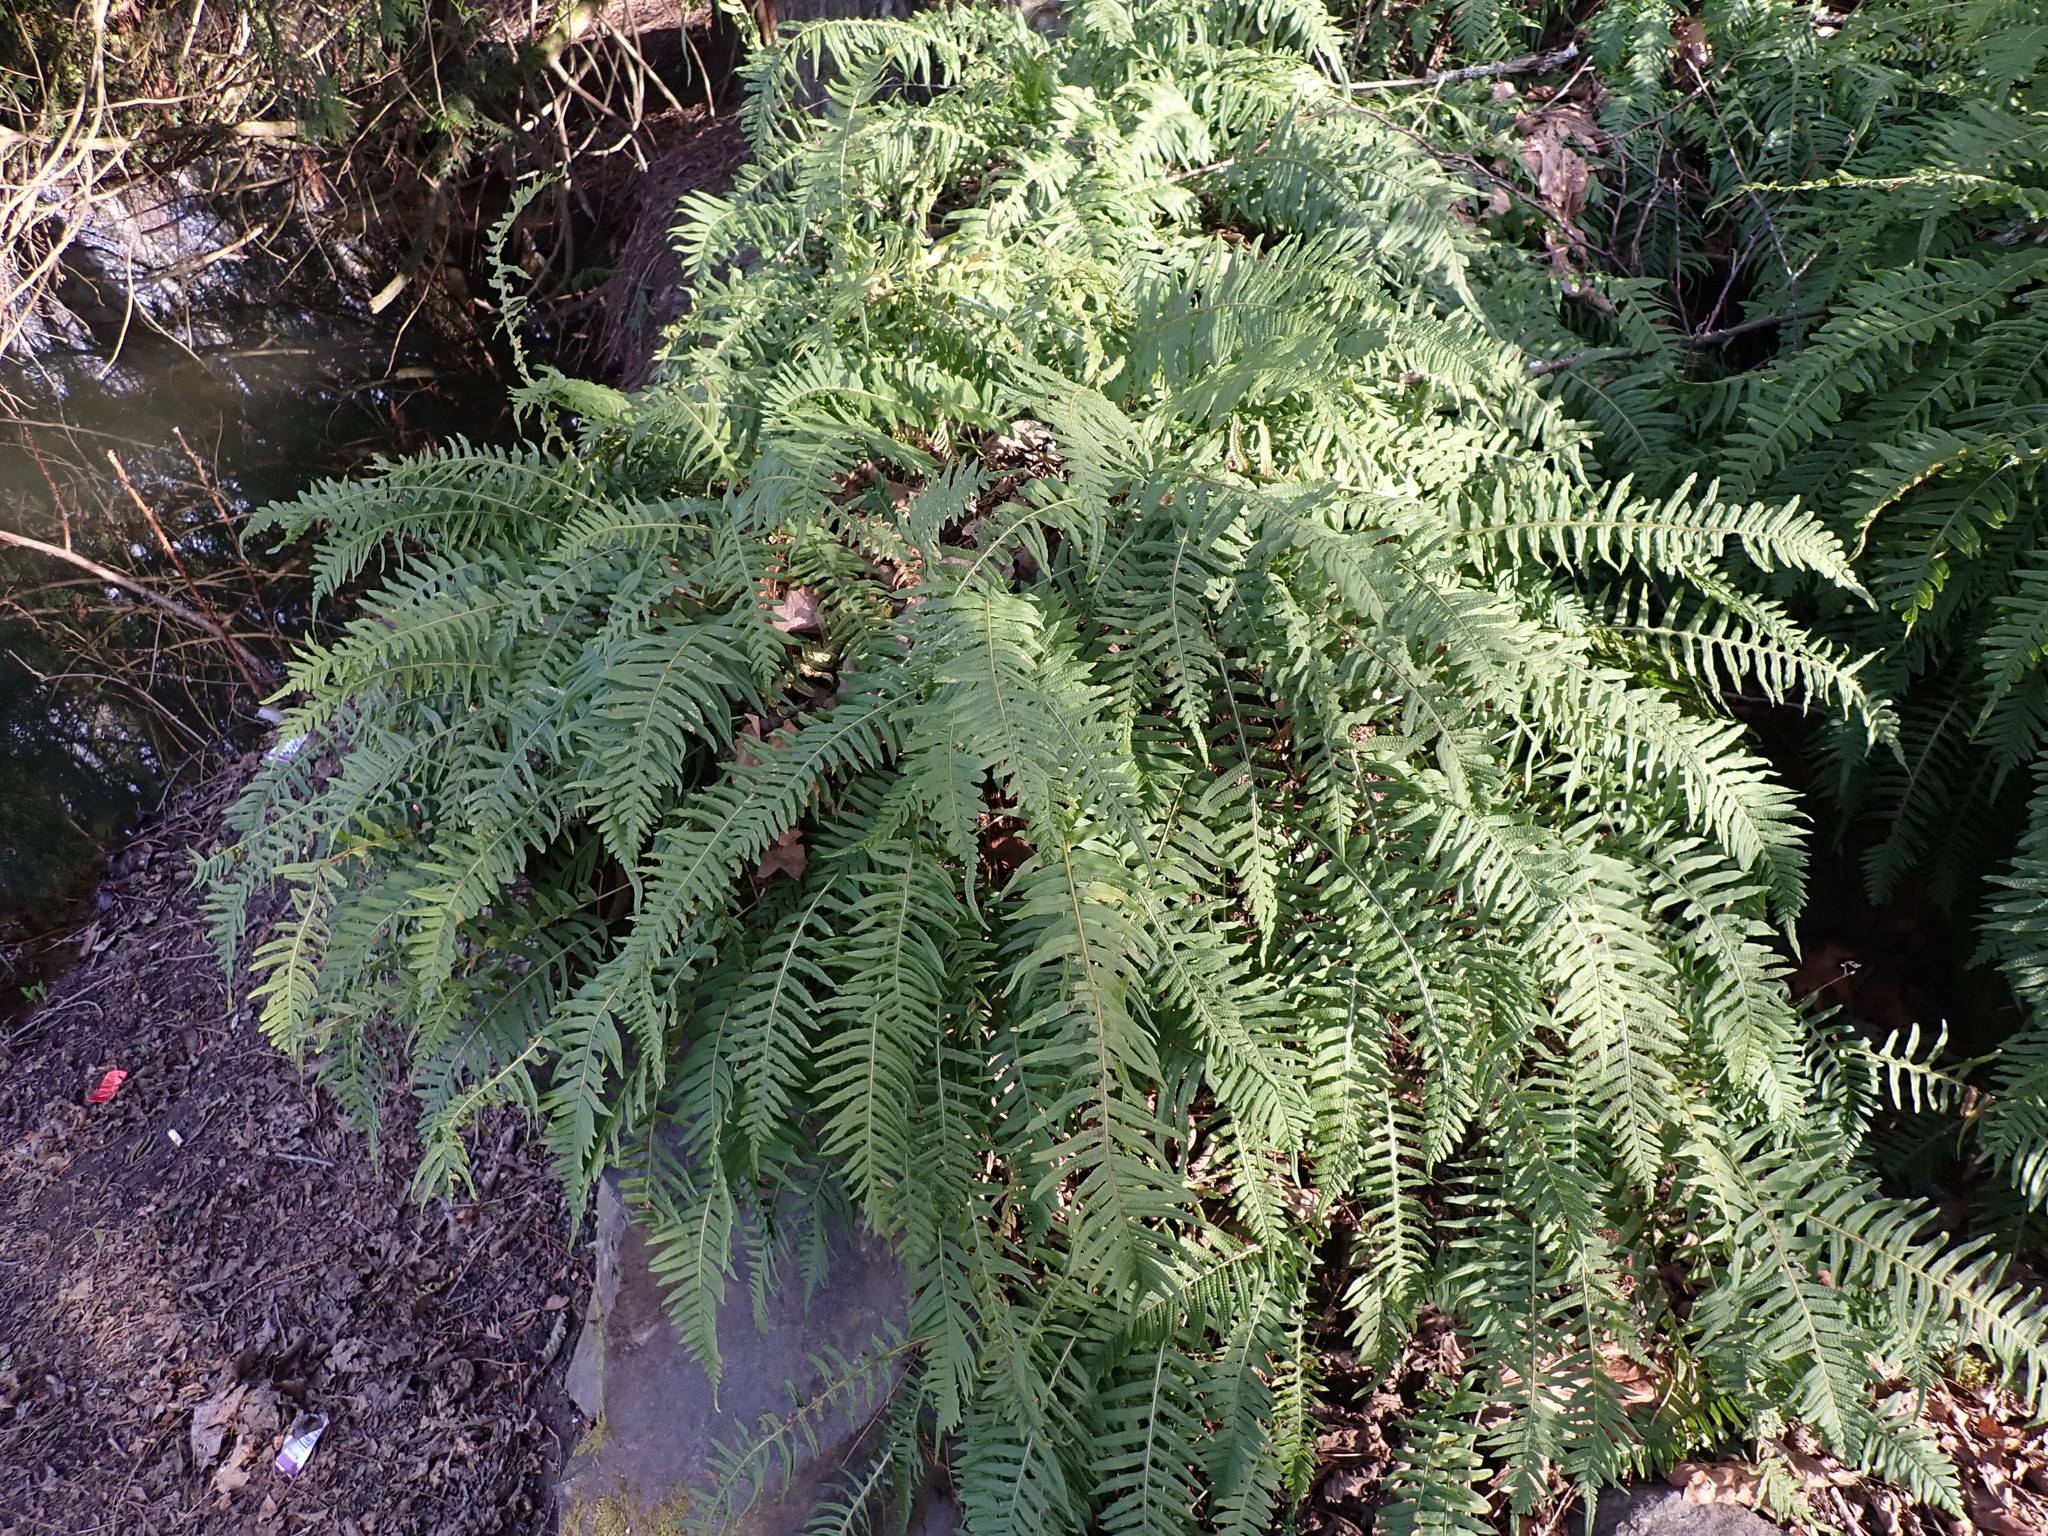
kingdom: Plantae
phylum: Tracheophyta
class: Polypodiopsida
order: Polypodiales
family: Polypodiaceae
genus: Polypodium
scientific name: Polypodium glycyrrhiza
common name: Licorice fern
